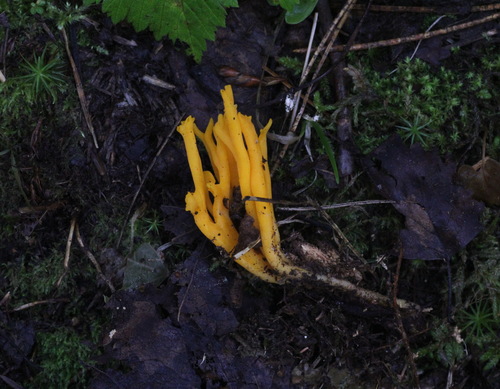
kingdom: Fungi
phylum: Basidiomycota
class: Dacrymycetes
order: Dacrymycetales
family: Dacrymycetaceae
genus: Calocera
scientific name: Calocera viscosa
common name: Yellow stagshorn
